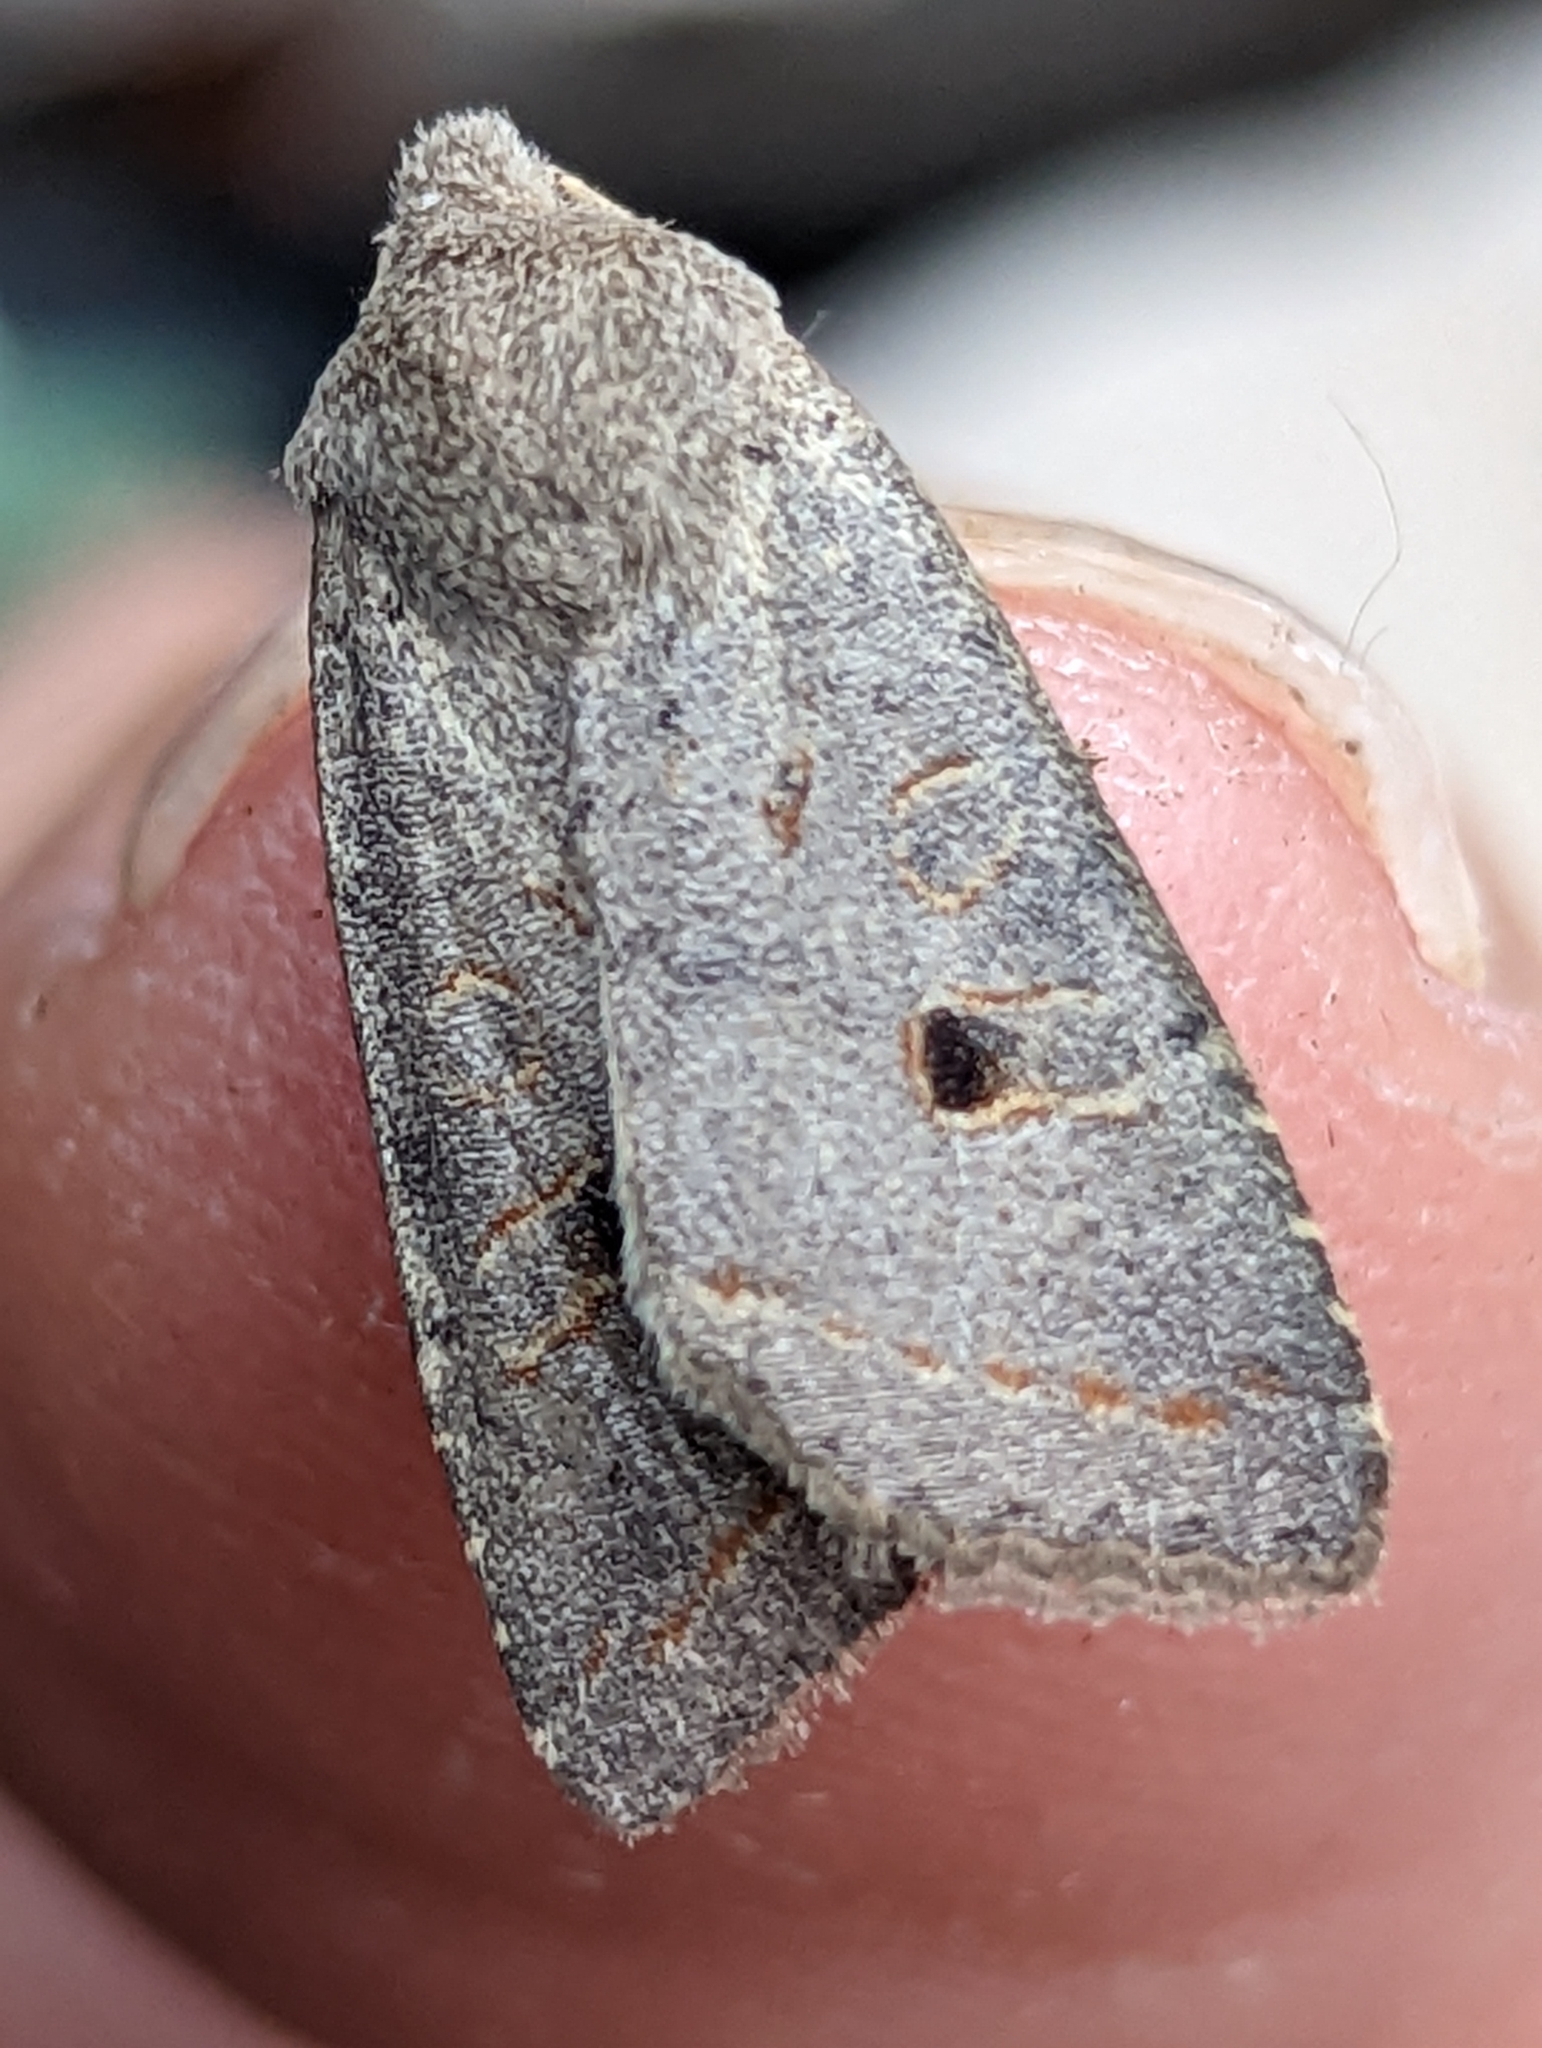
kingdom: Animalia
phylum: Arthropoda
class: Insecta
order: Lepidoptera
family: Noctuidae
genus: Agrochola
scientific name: Agrochola lota
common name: Red-line quaker
